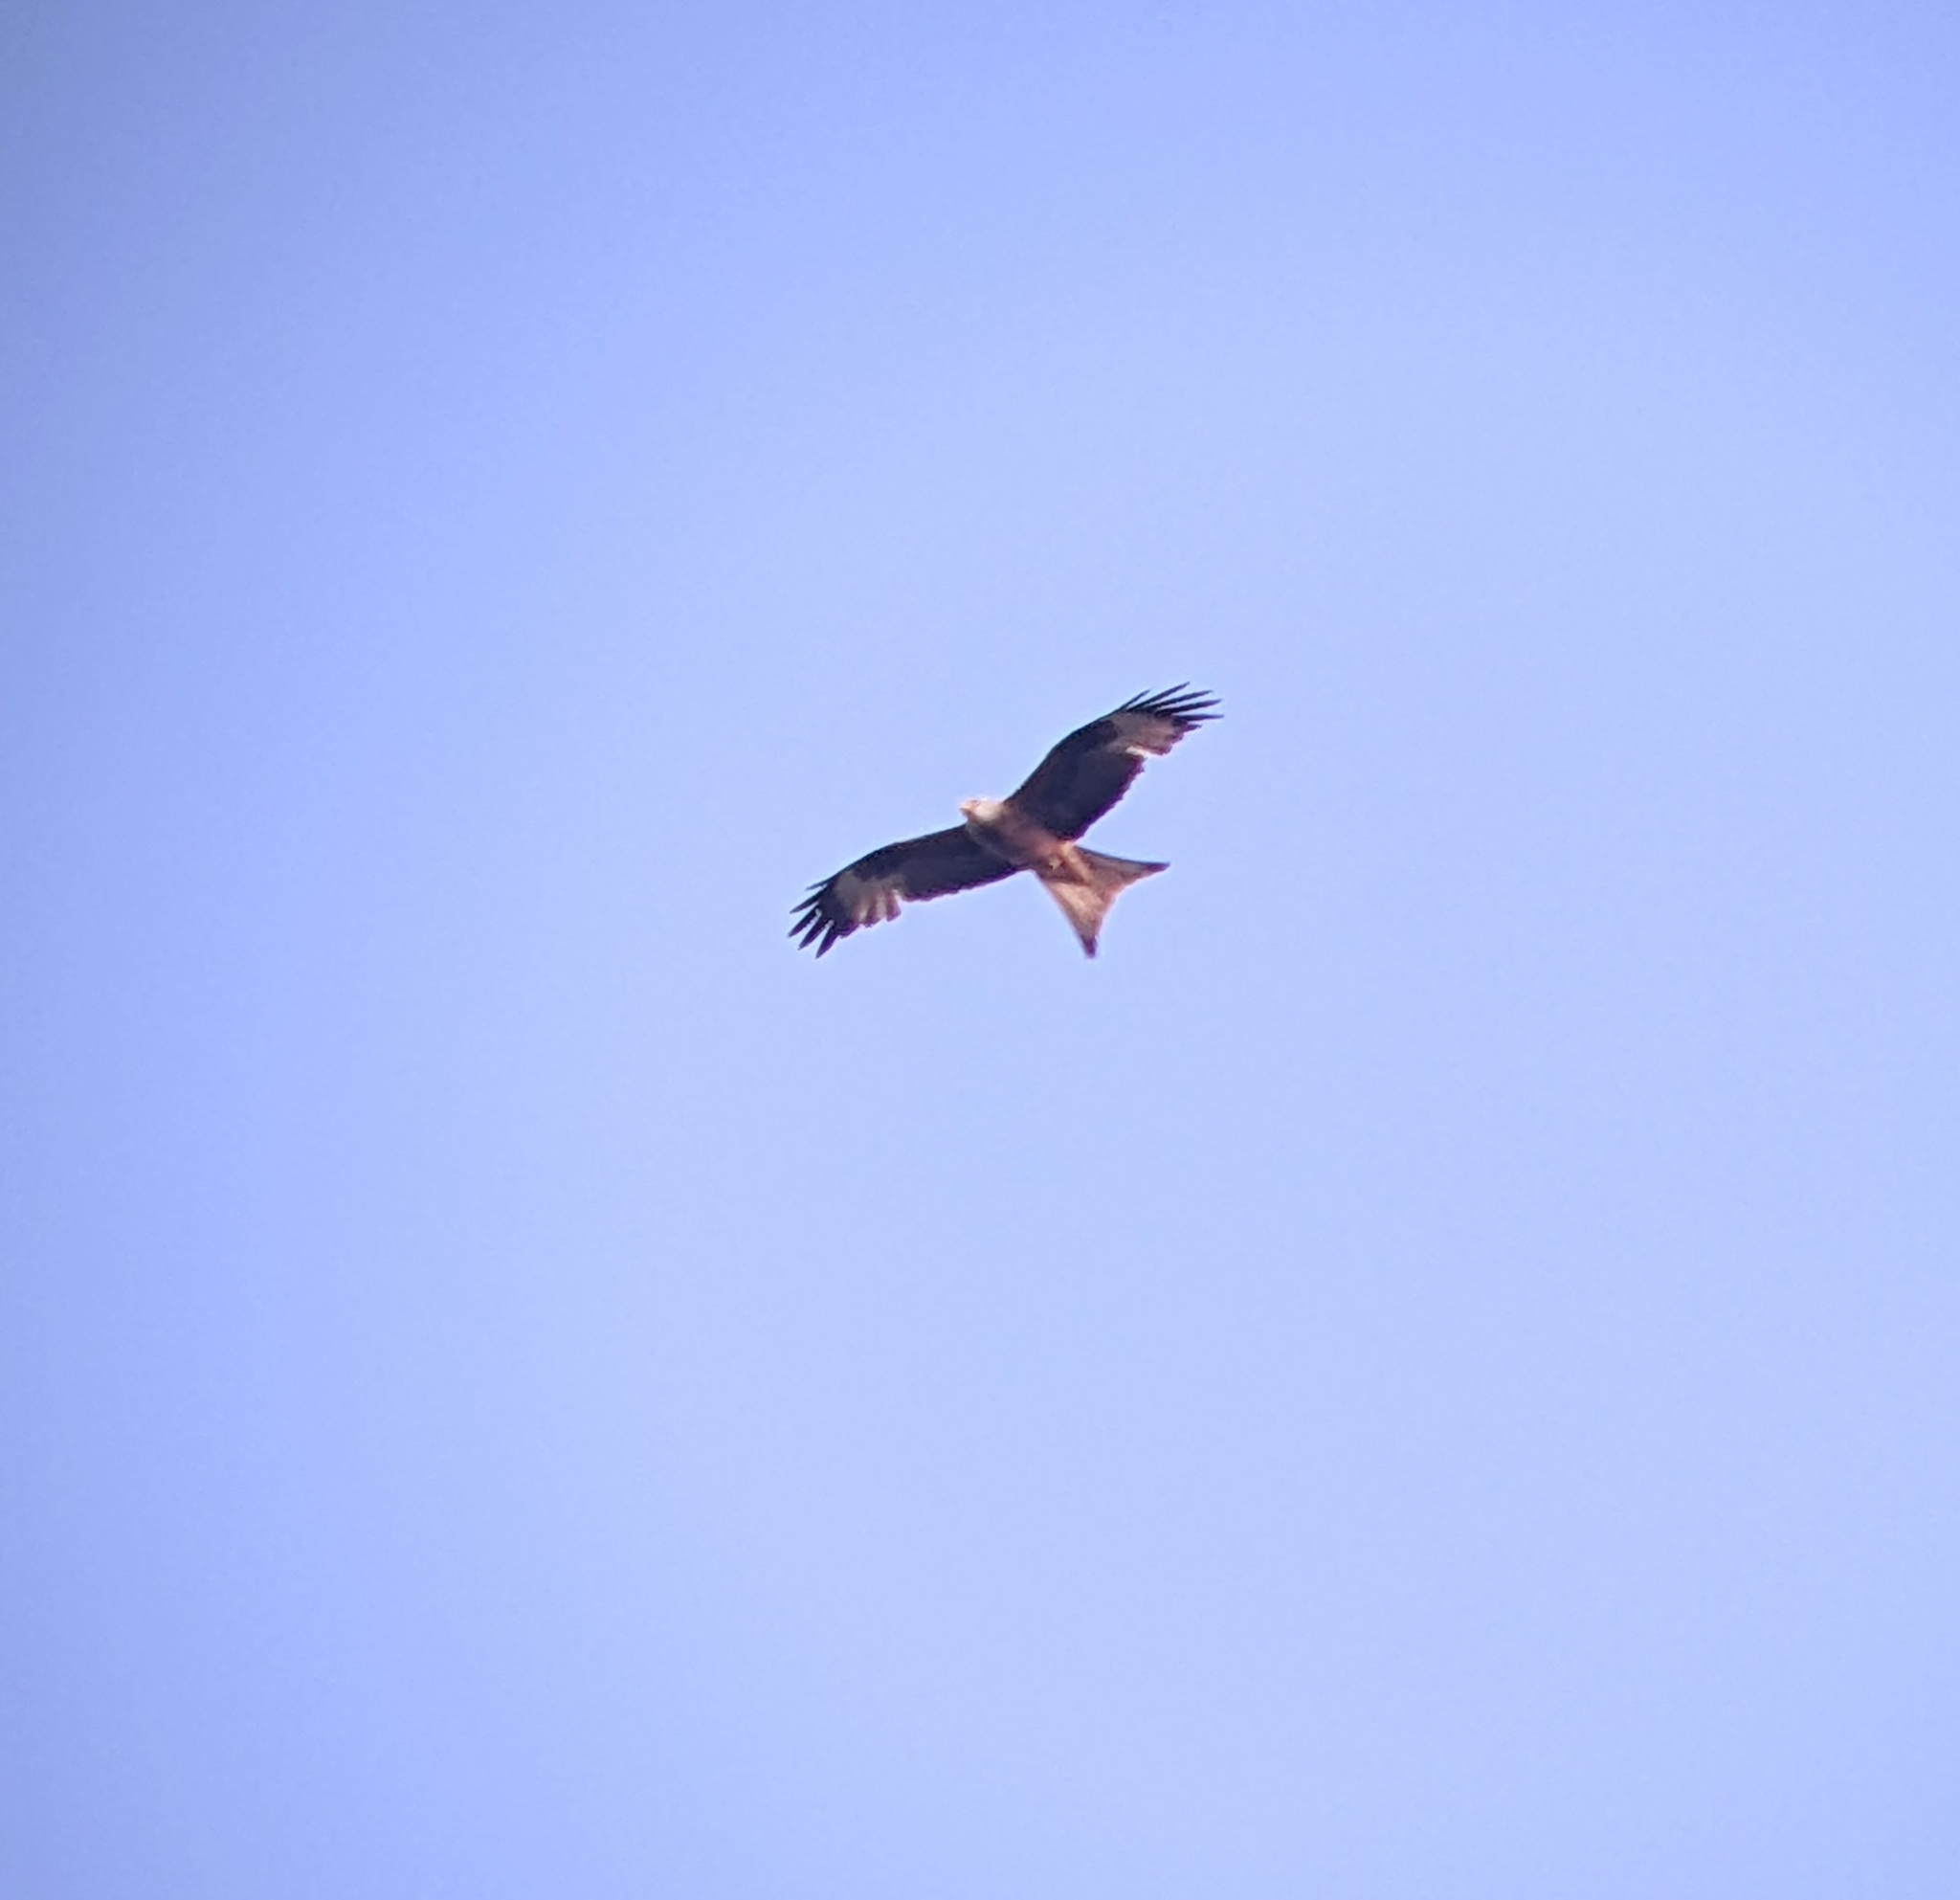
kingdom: Animalia
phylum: Chordata
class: Aves
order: Accipitriformes
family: Accipitridae
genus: Milvus
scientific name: Milvus milvus
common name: Red kite
